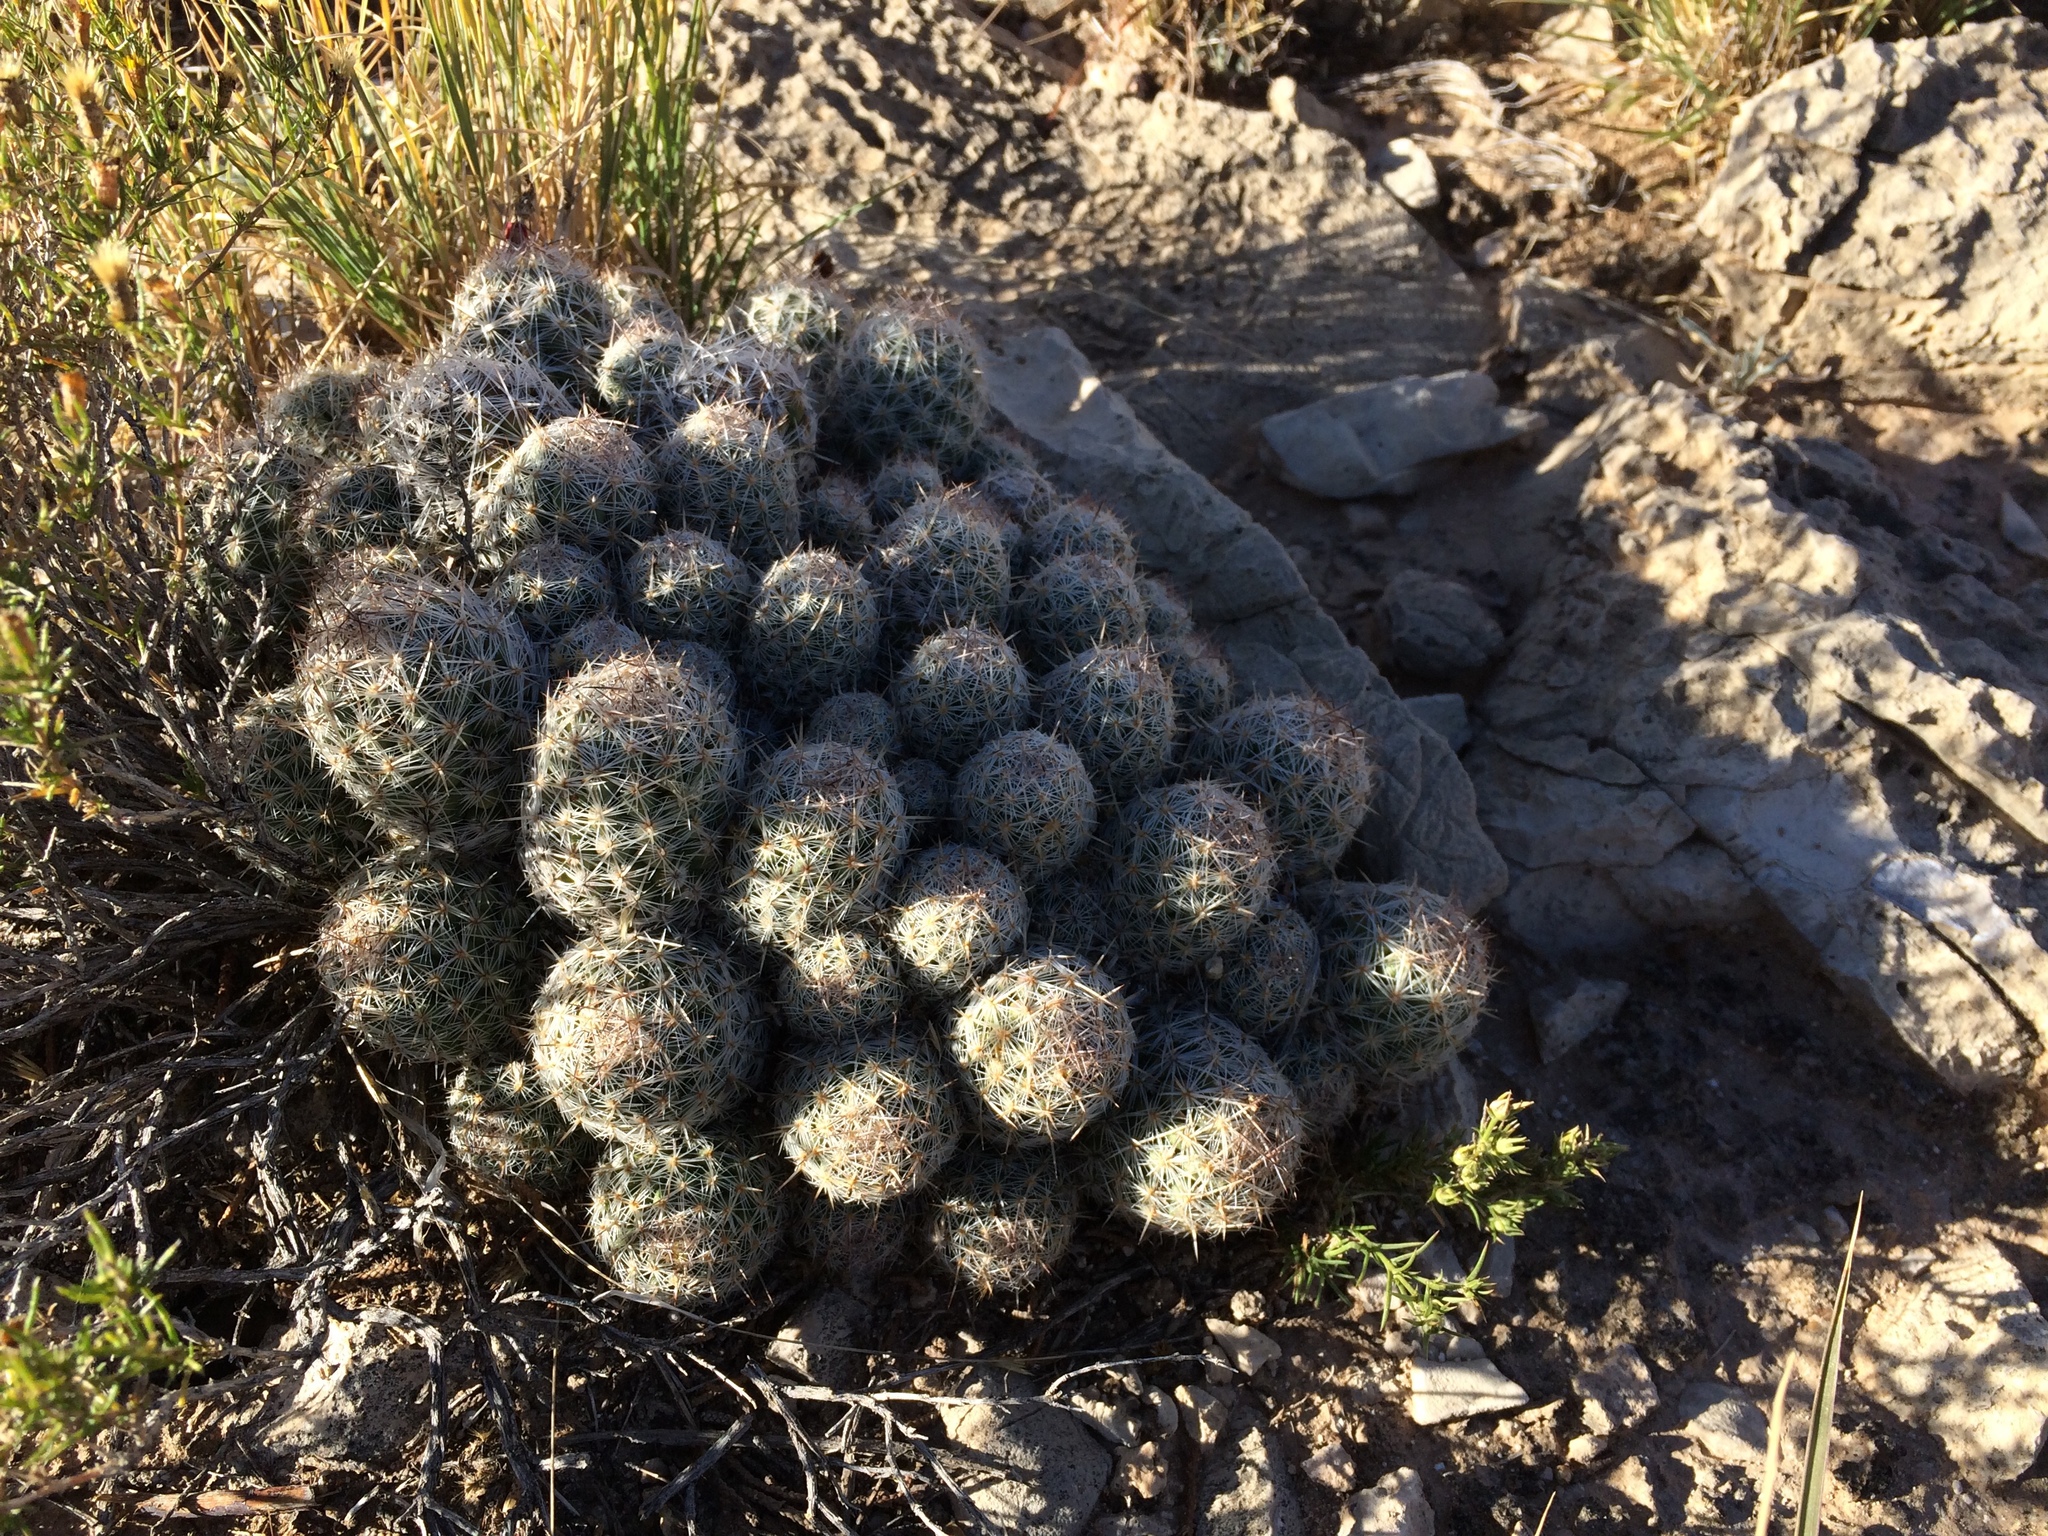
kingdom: Plantae
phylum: Tracheophyta
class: Magnoliopsida
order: Caryophyllales
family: Cactaceae
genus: Pelecyphora
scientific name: Pelecyphora tuberculosa
